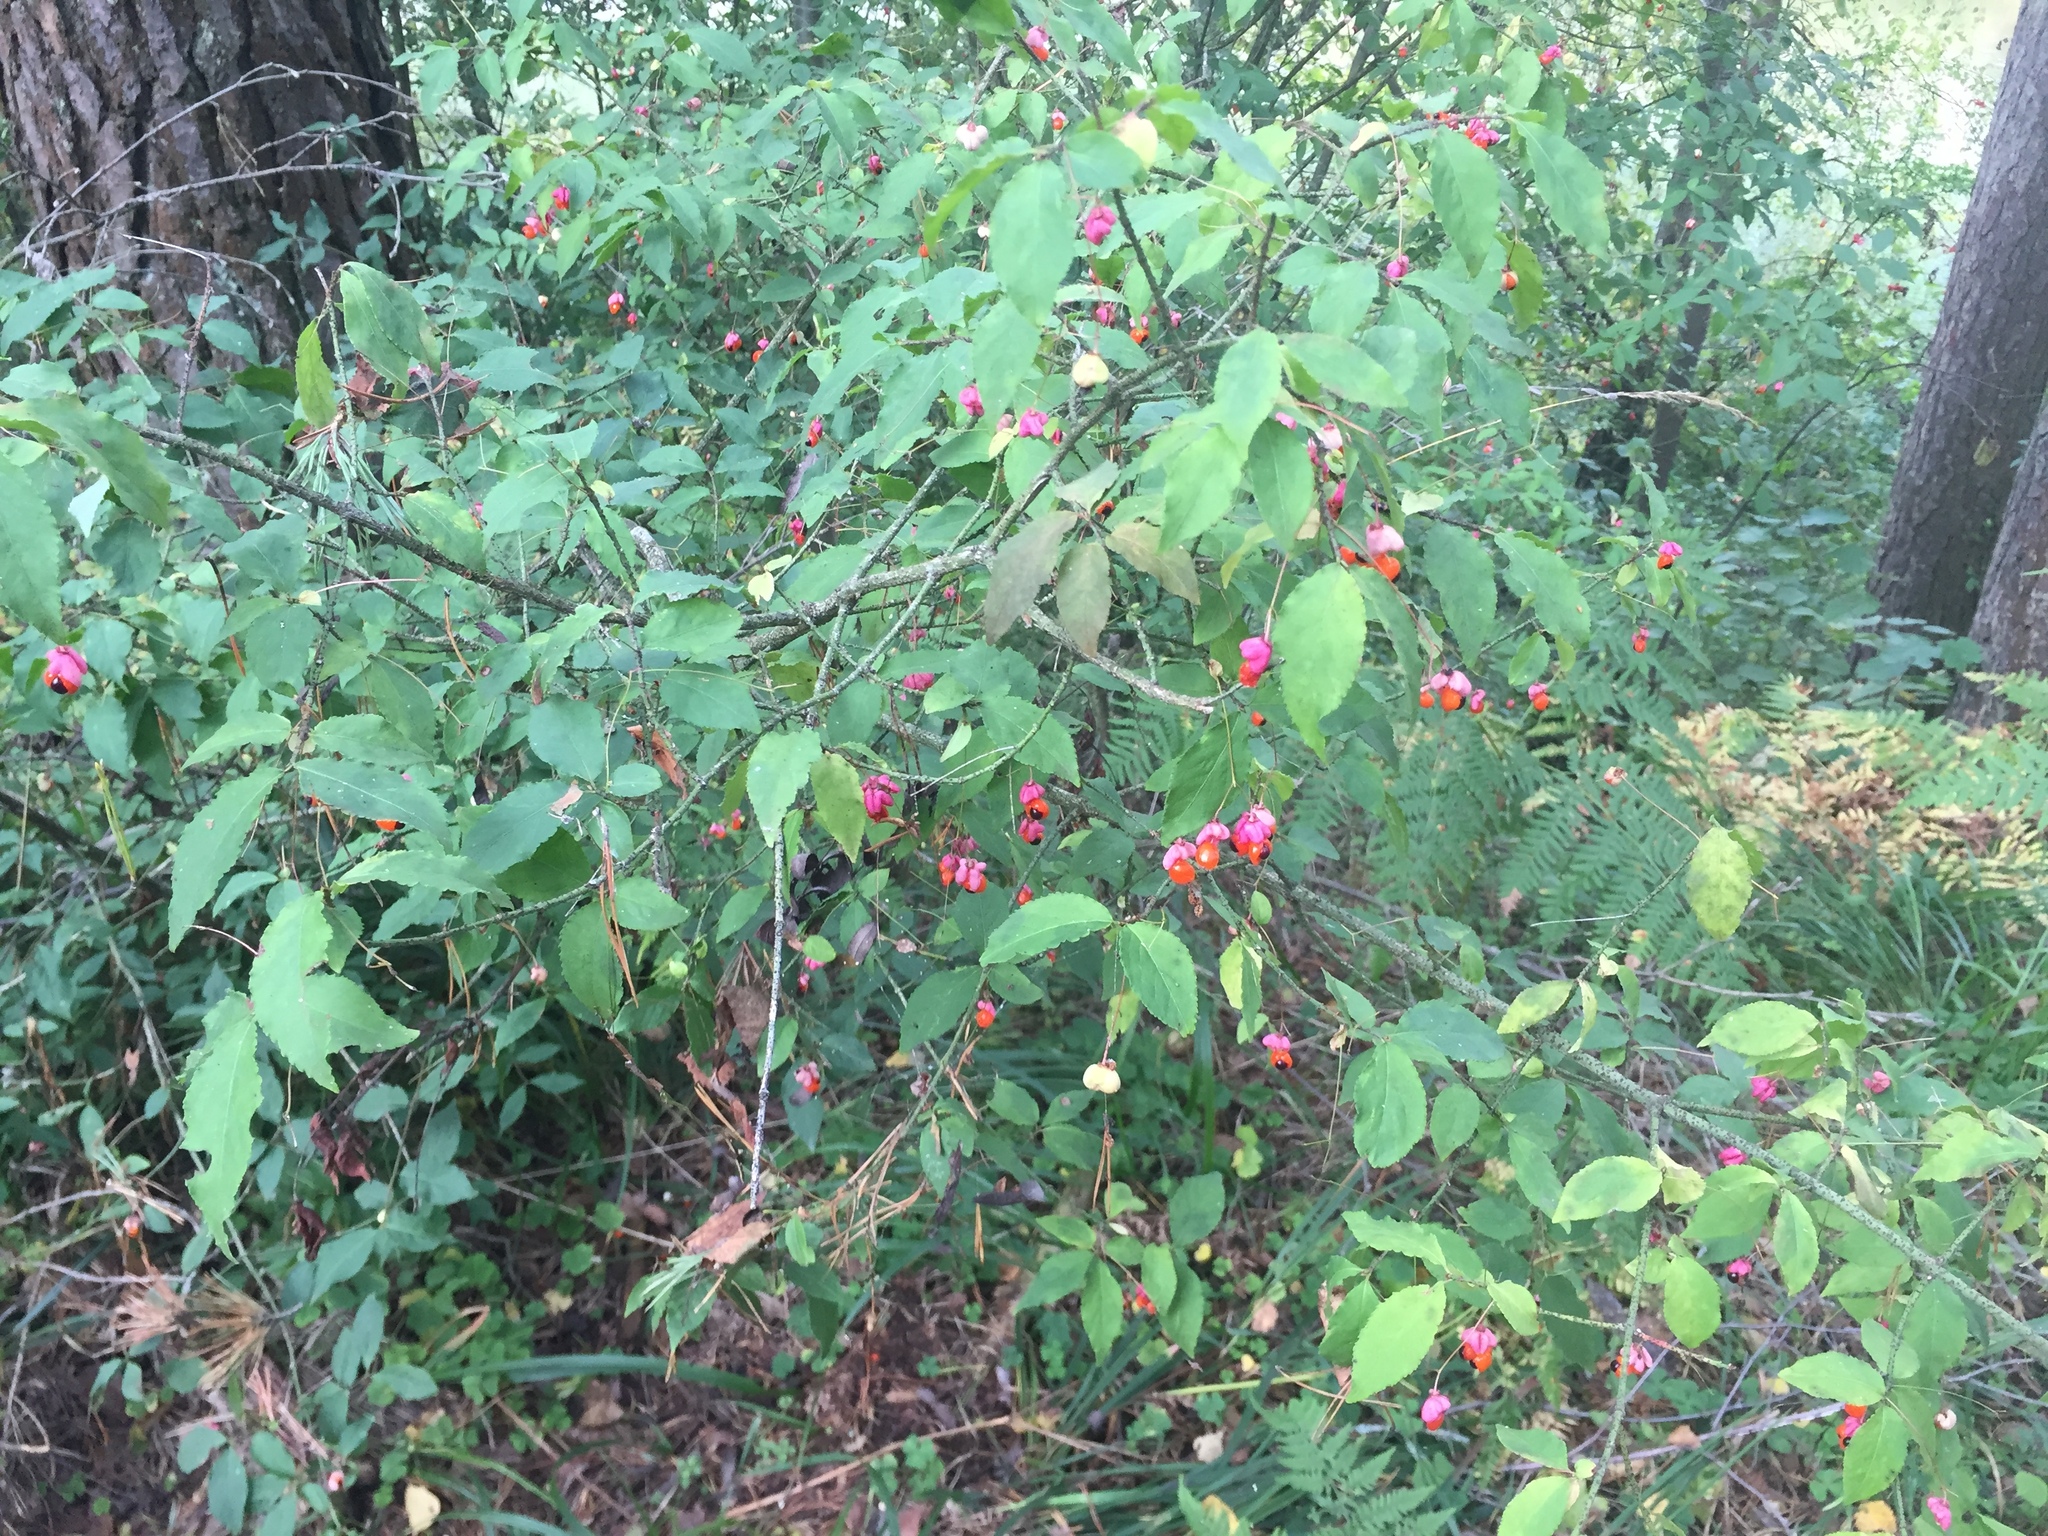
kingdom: Plantae
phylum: Tracheophyta
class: Magnoliopsida
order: Celastrales
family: Celastraceae
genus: Euonymus
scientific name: Euonymus verrucosus
